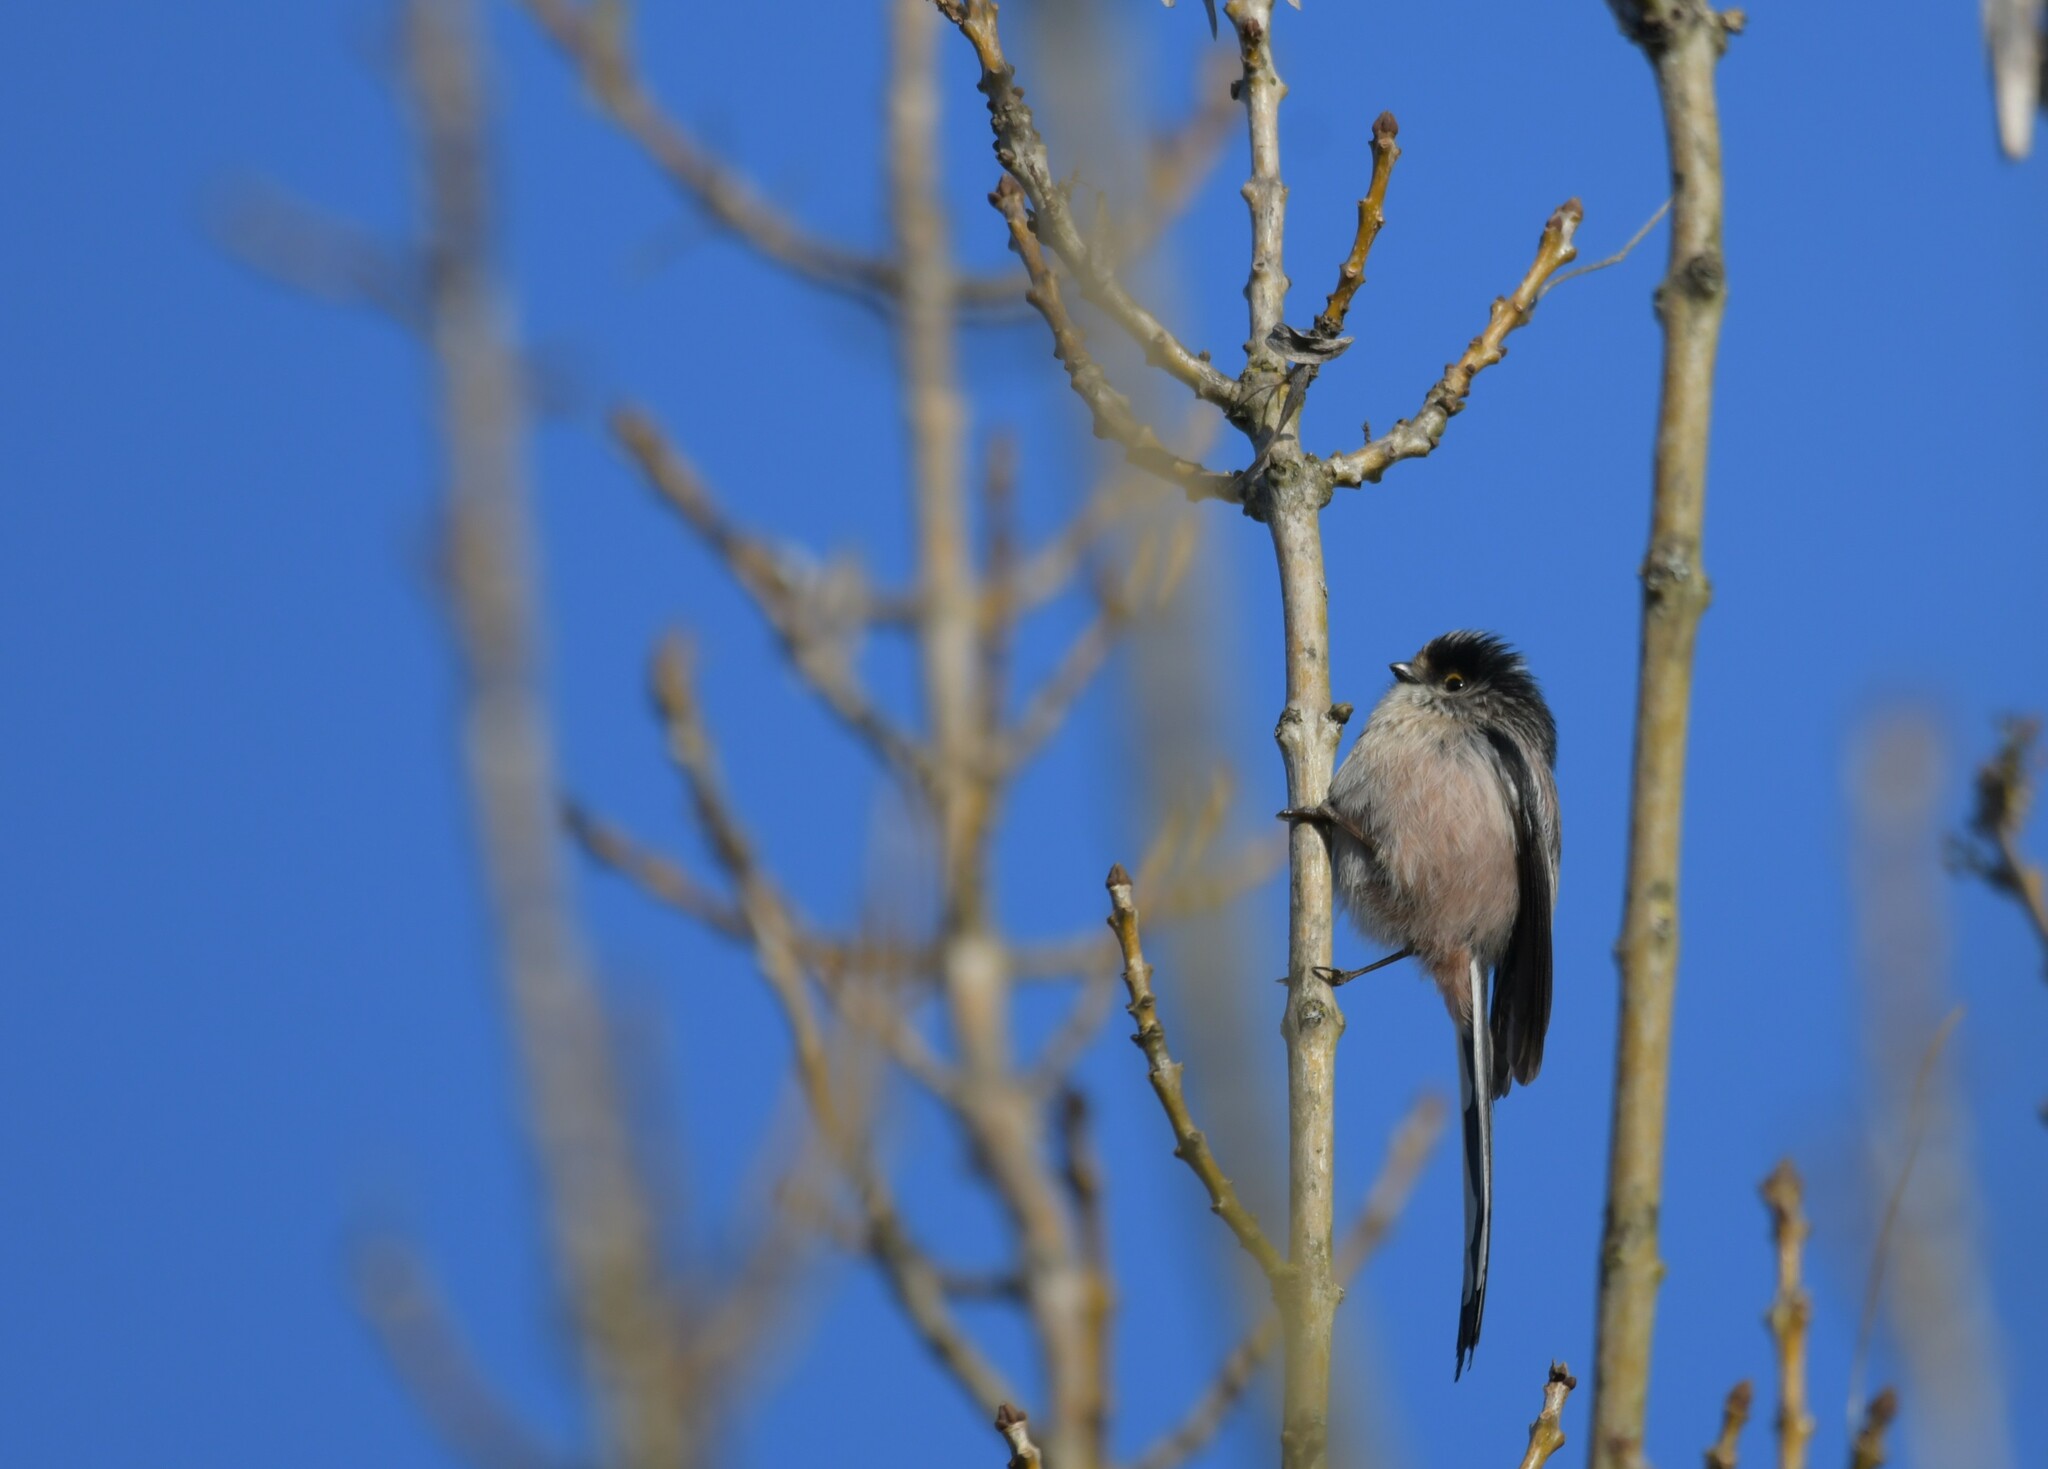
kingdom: Animalia
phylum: Chordata
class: Aves
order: Passeriformes
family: Aegithalidae
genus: Aegithalos
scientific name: Aegithalos caudatus
